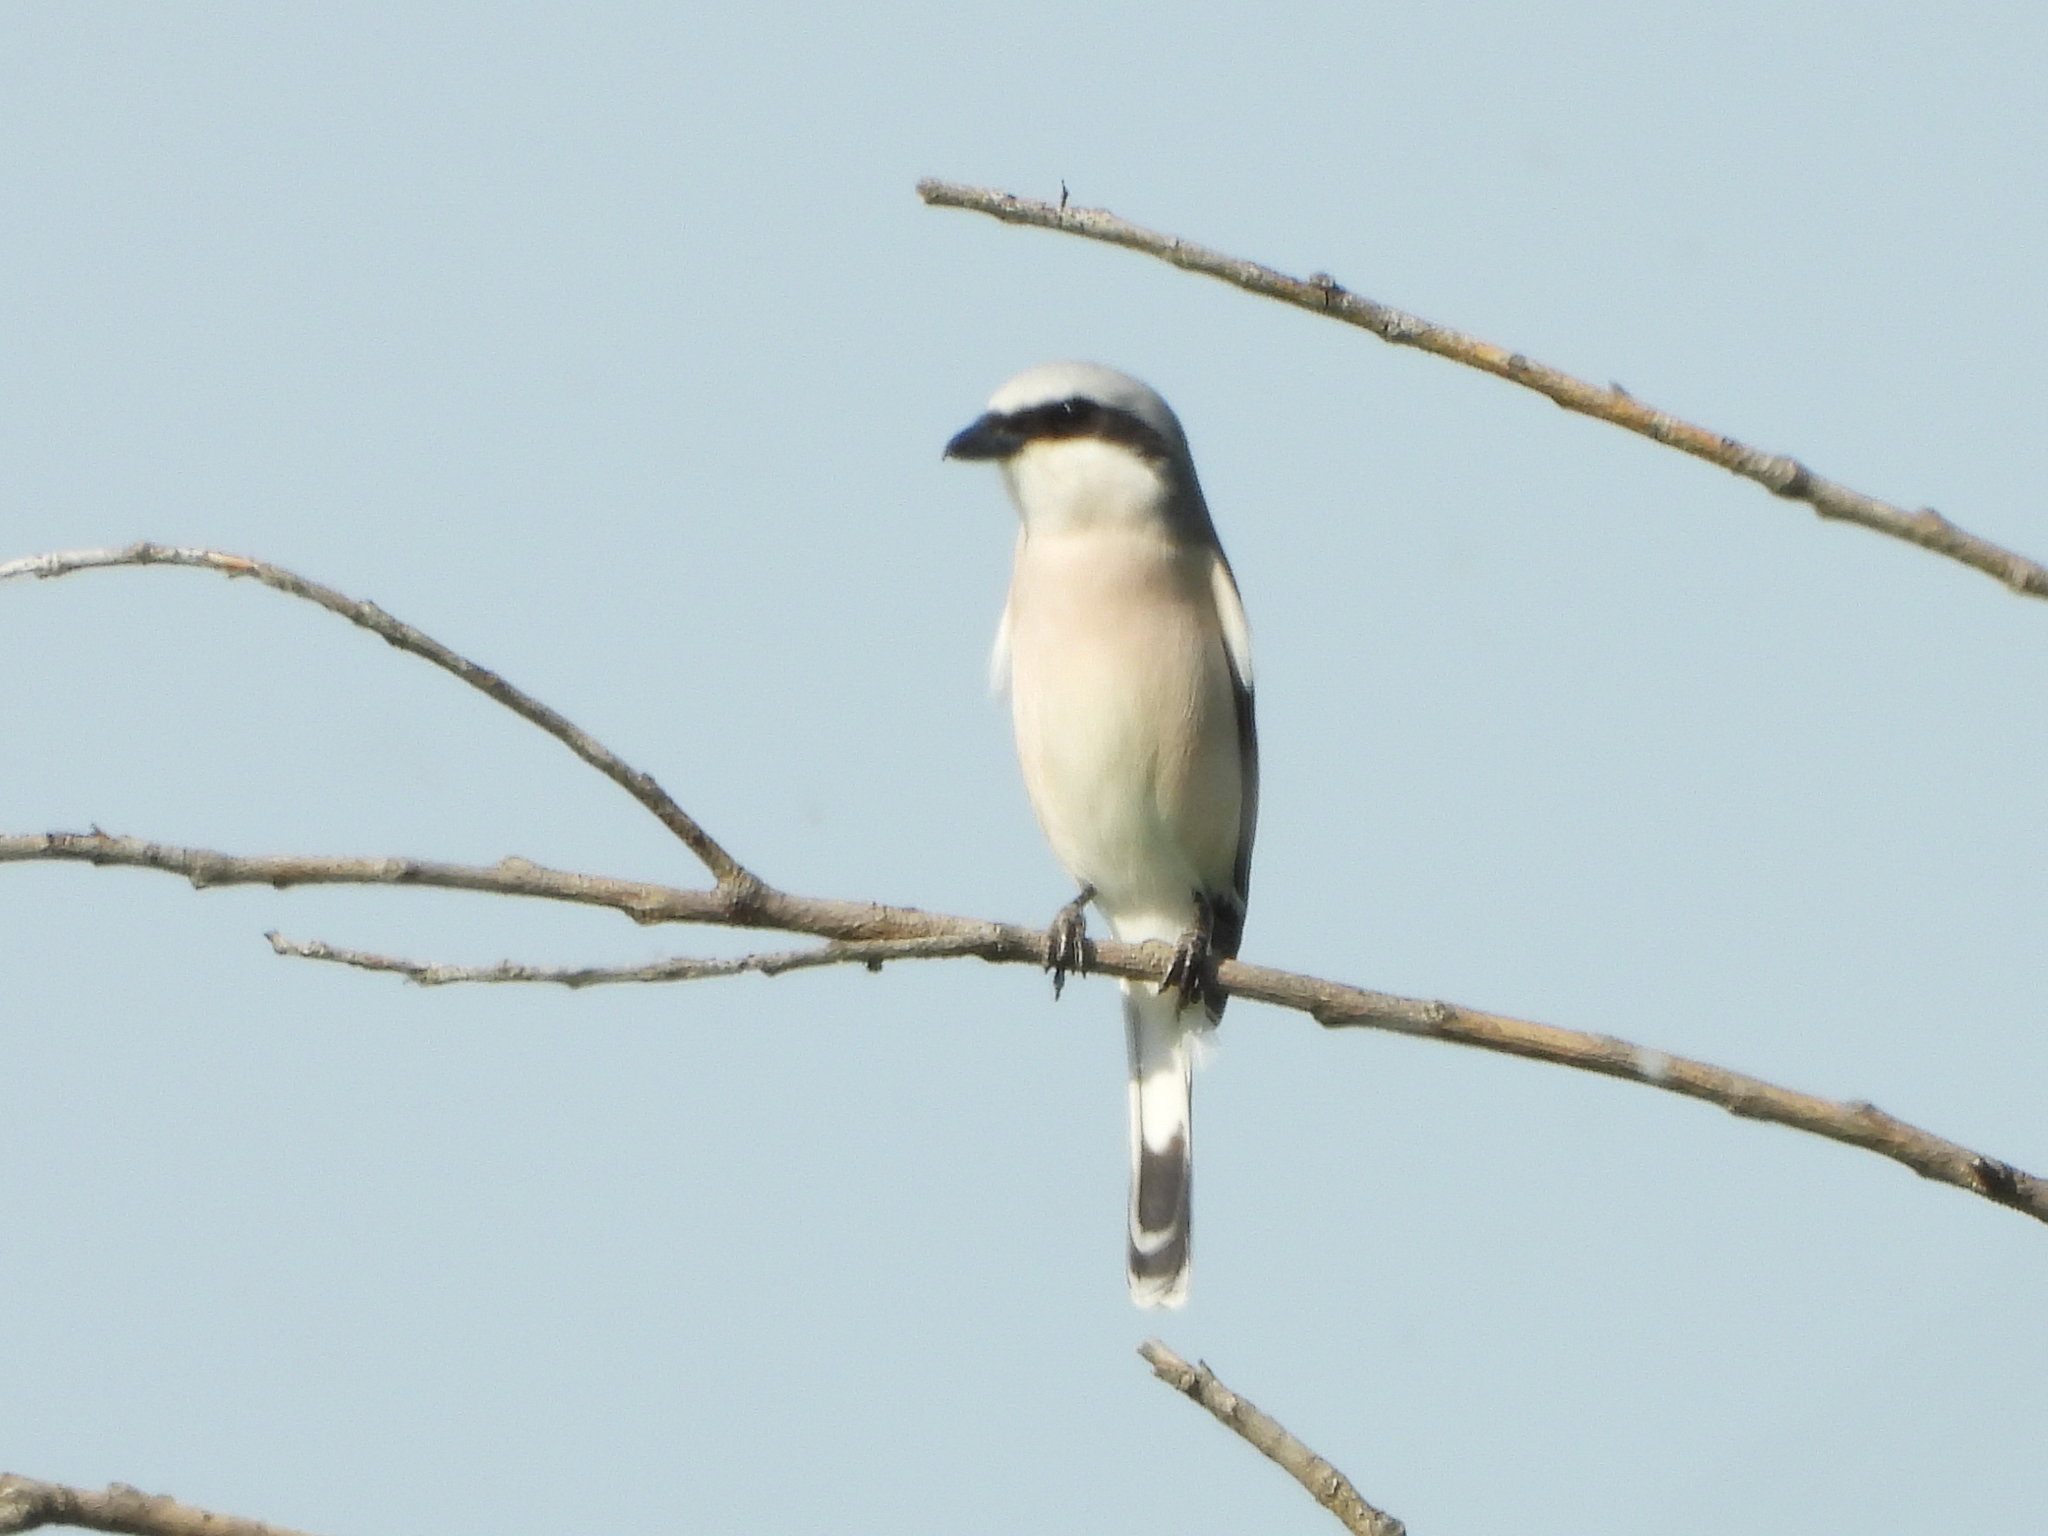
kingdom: Animalia
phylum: Chordata
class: Aves
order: Passeriformes
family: Laniidae
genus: Lanius
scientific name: Lanius excubitor
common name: Great grey shrike
